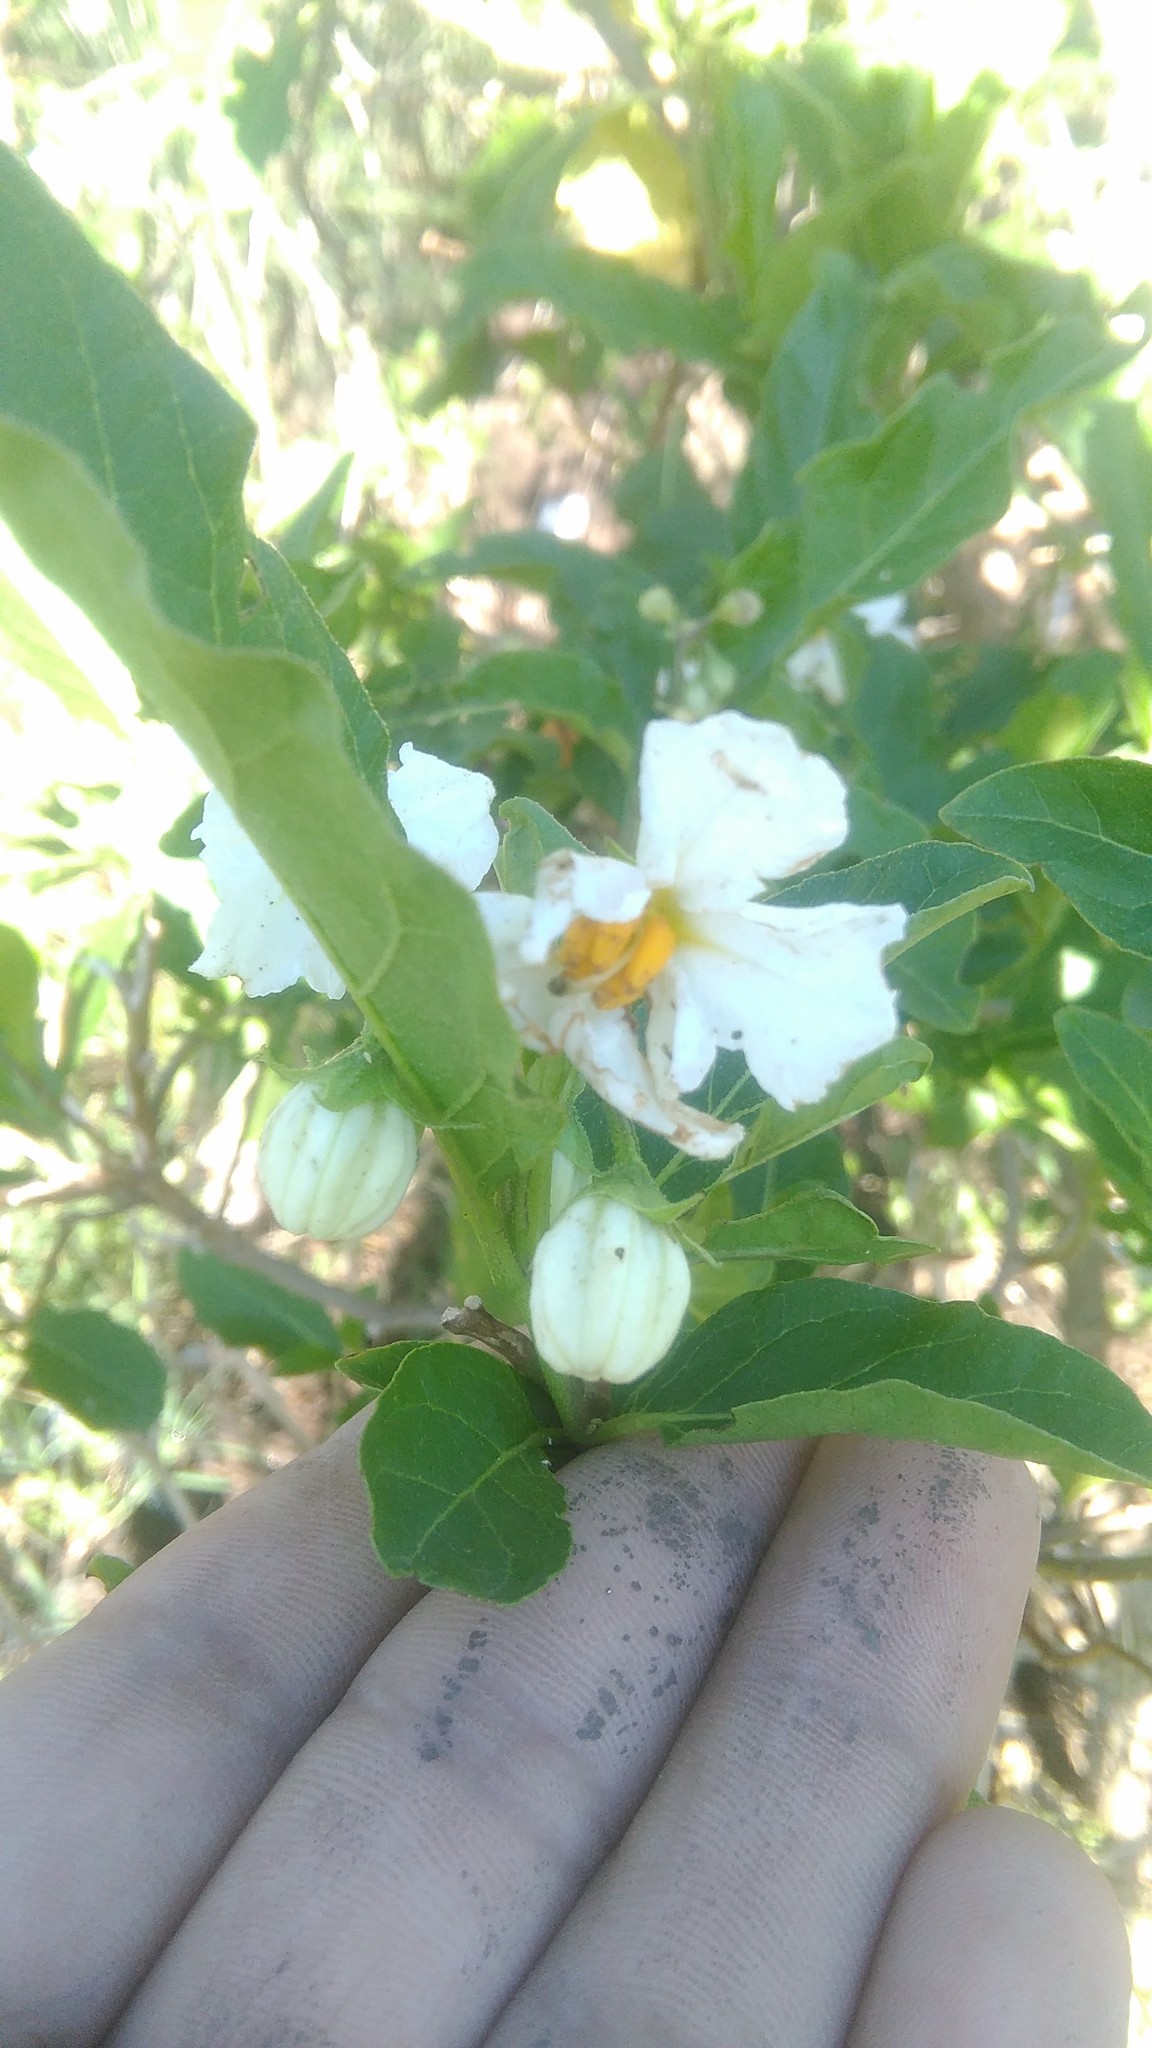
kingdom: Plantae
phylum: Tracheophyta
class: Magnoliopsida
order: Solanales
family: Solanaceae
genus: Solanum
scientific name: Solanum bonariense
